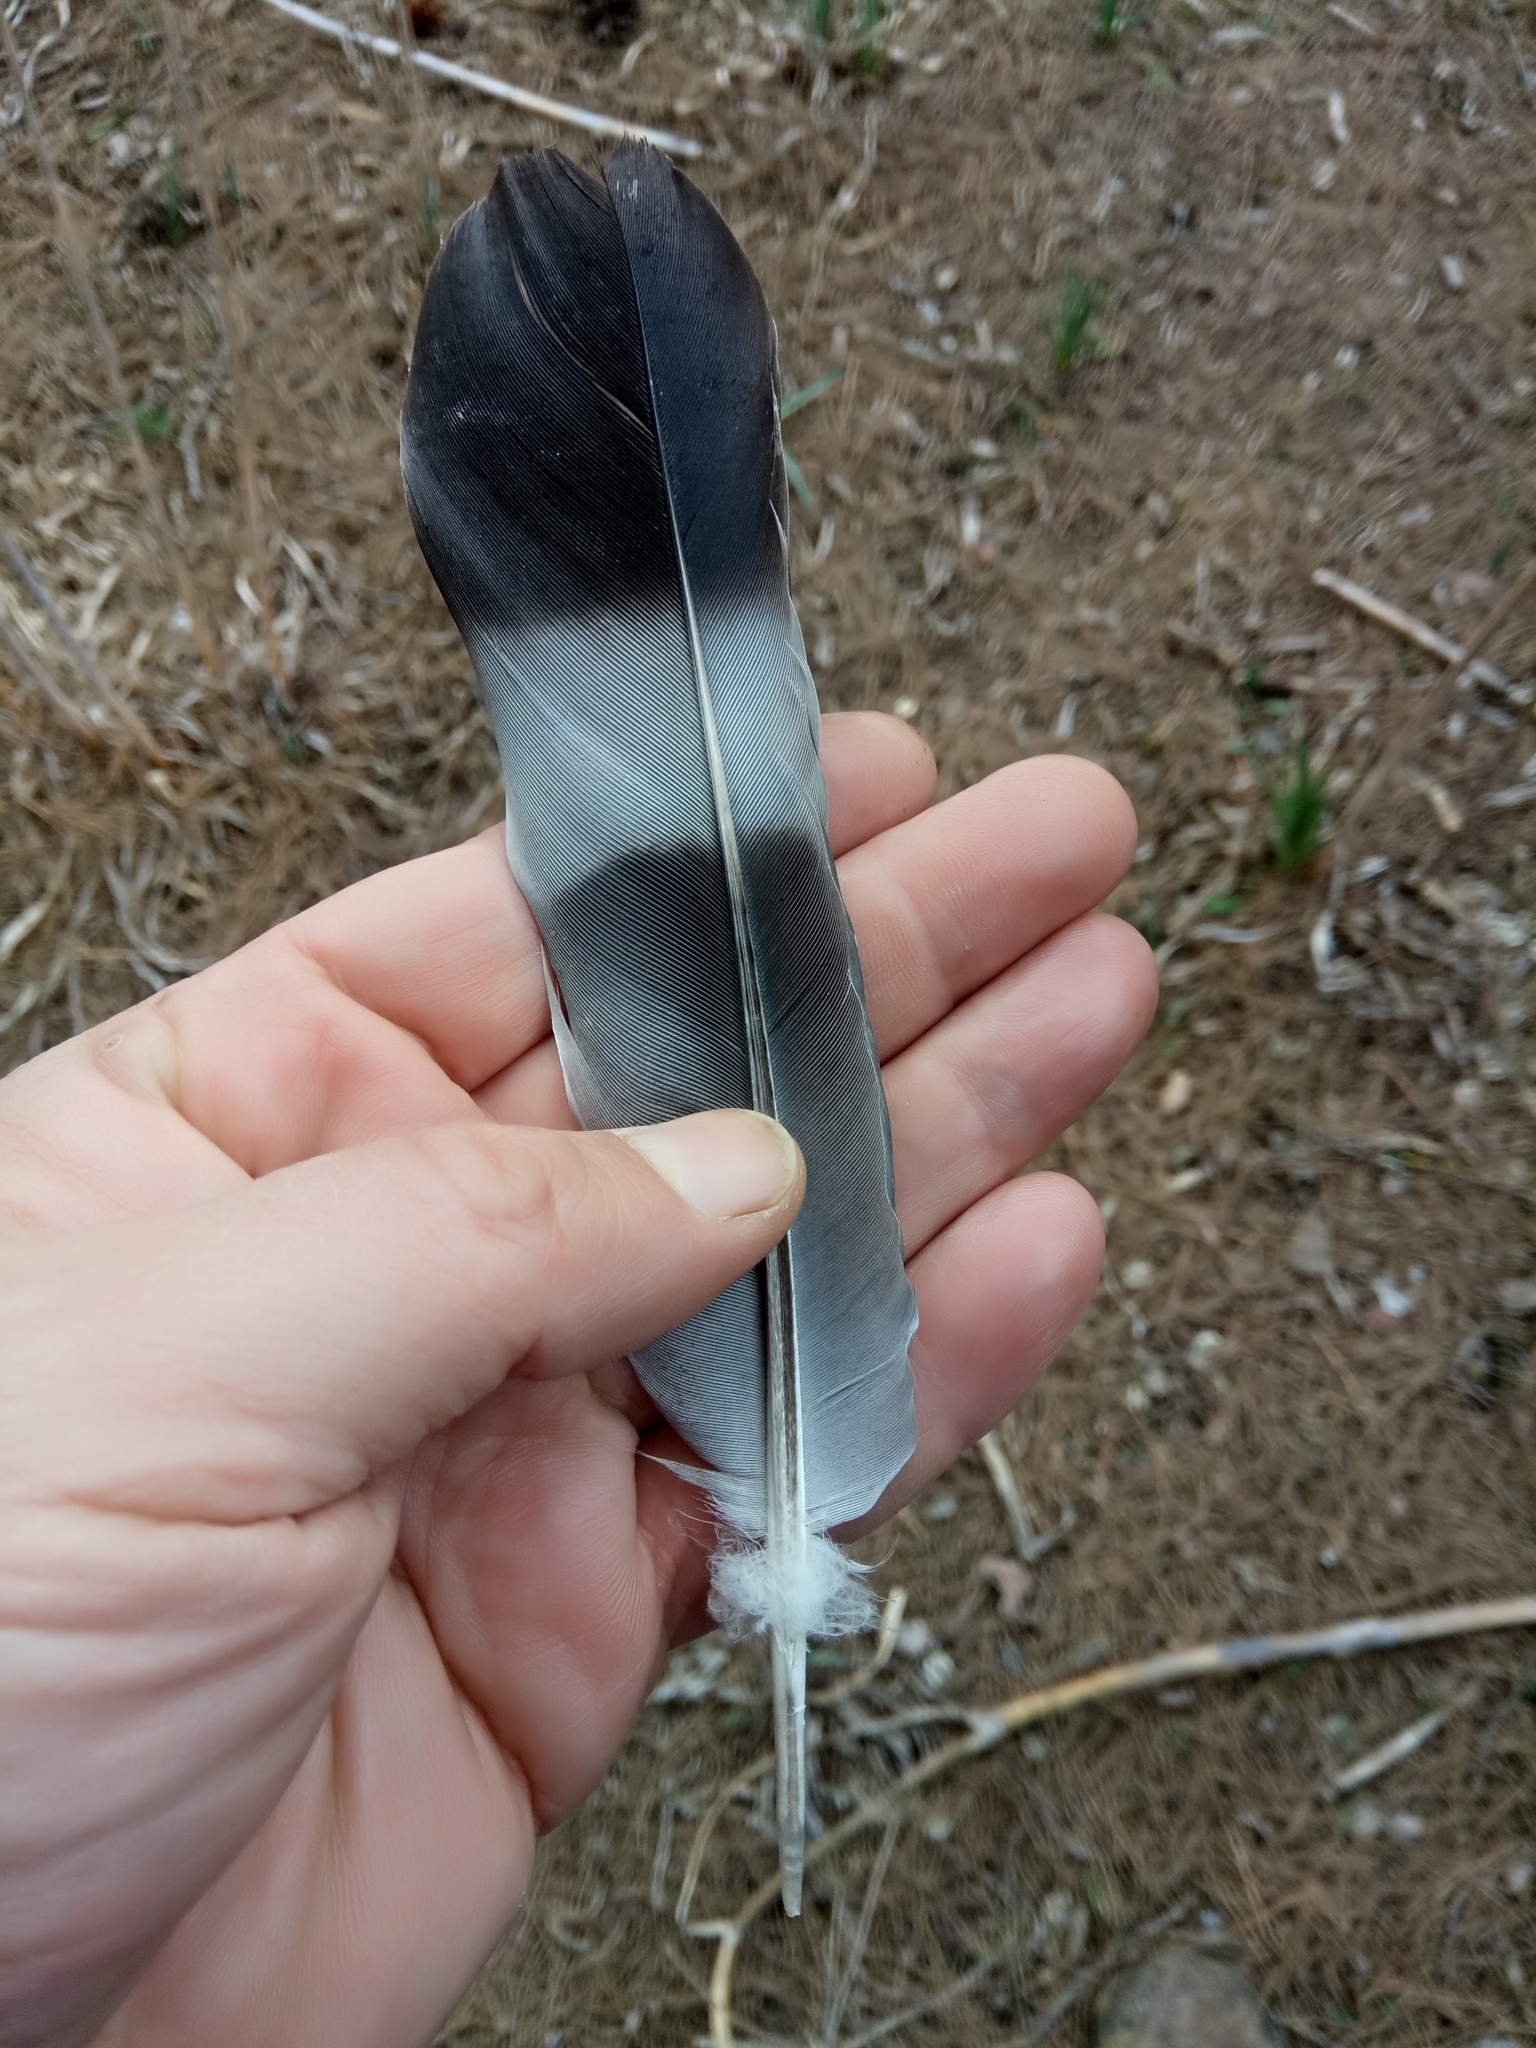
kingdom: Animalia
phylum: Chordata
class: Aves
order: Columbiformes
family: Columbidae
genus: Columba
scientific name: Columba palumbus
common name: Common wood pigeon
